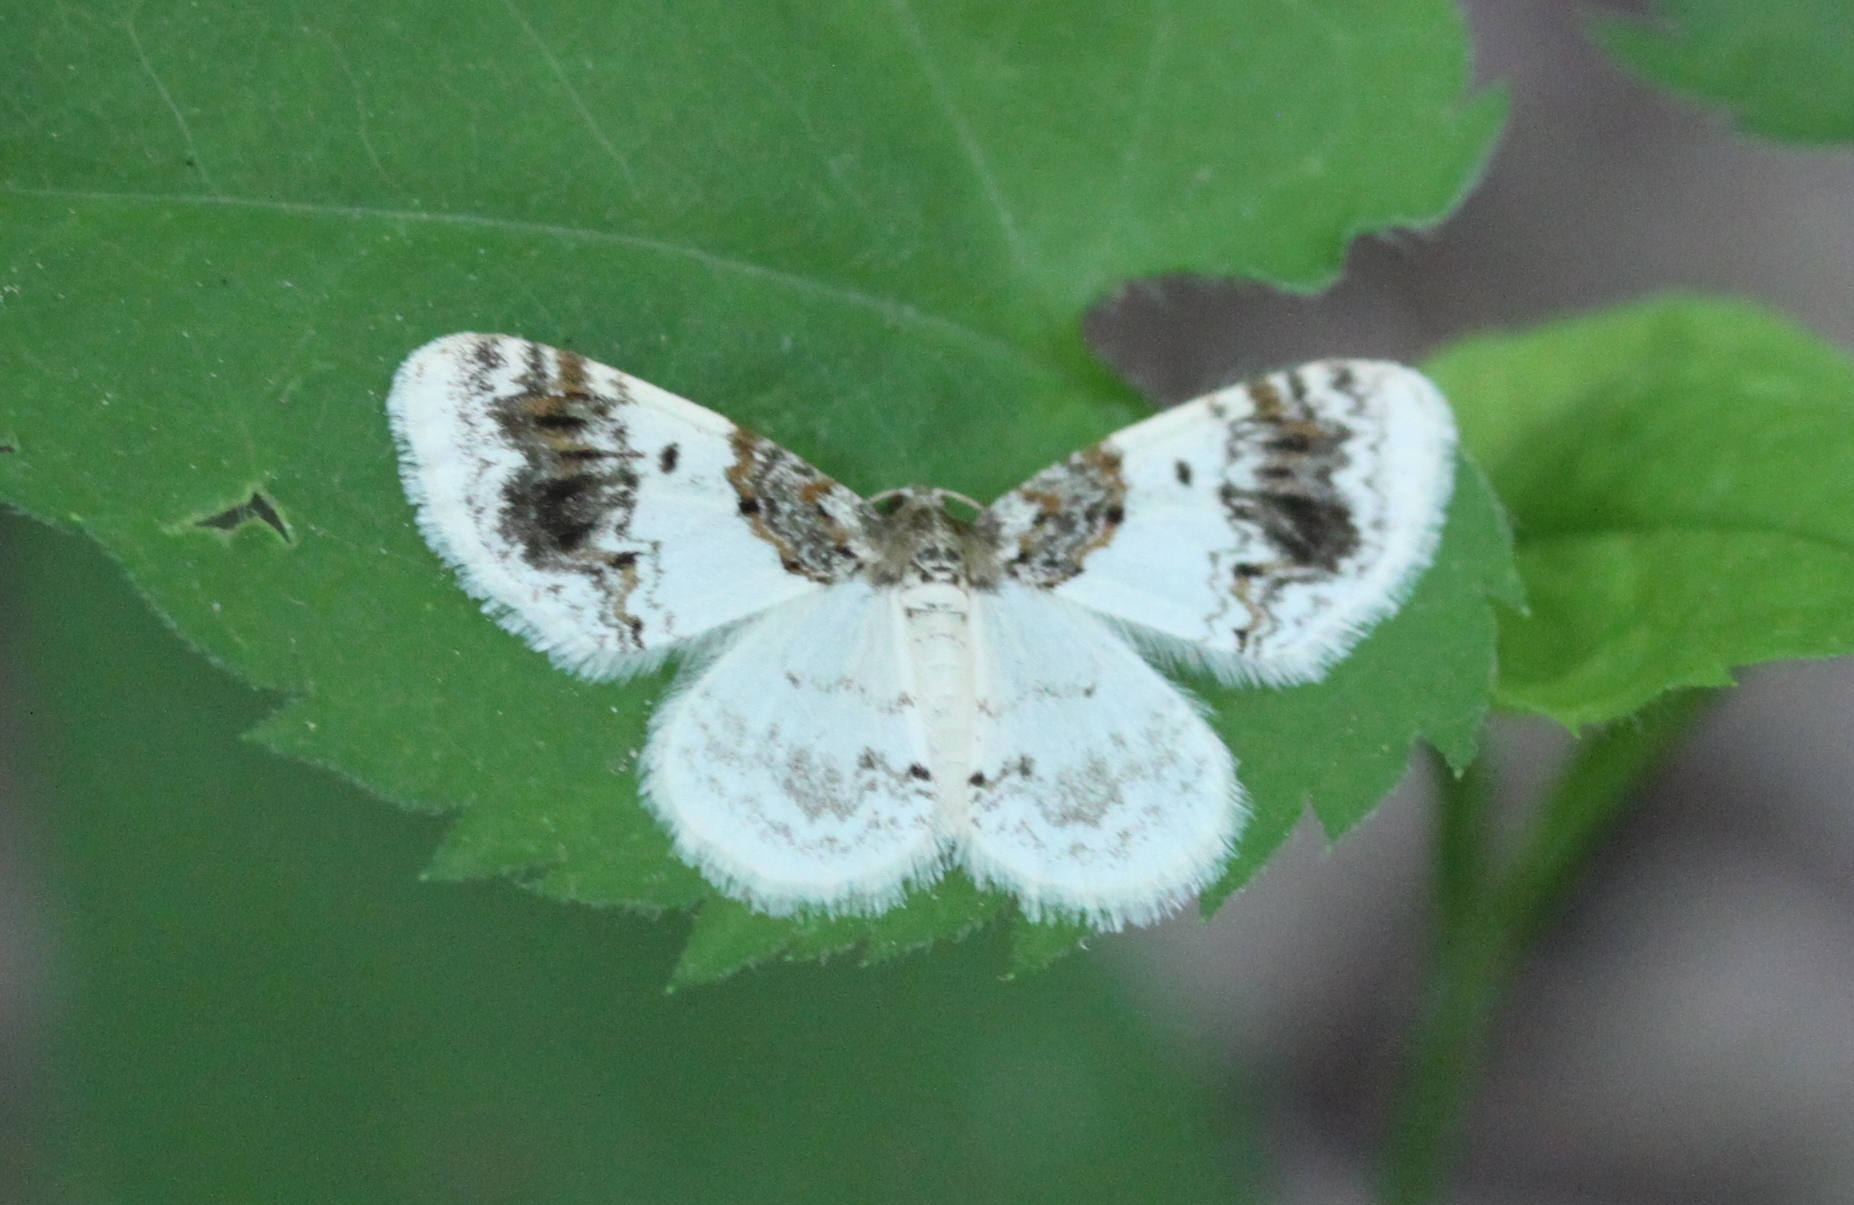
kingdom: Animalia
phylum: Arthropoda
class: Insecta
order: Lepidoptera
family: Geometridae
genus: Hydrelia
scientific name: Hydrelia condensata
